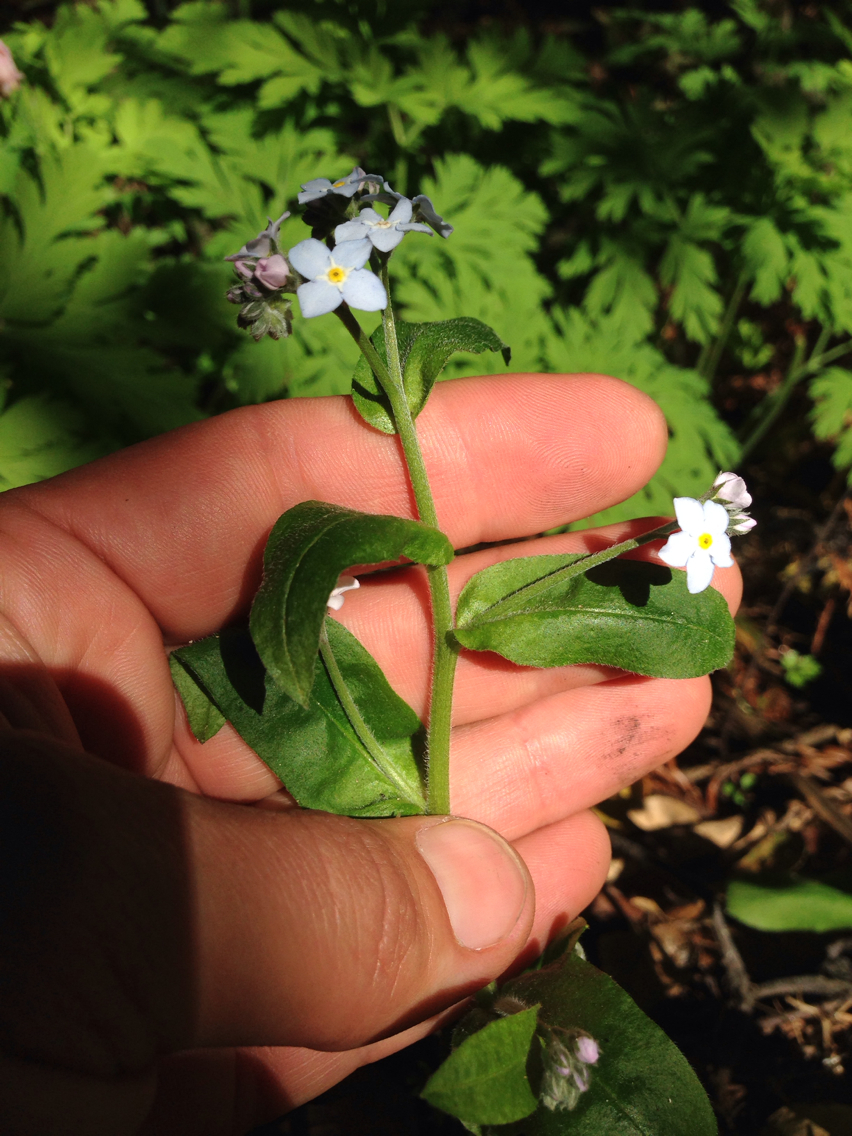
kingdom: Plantae
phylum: Tracheophyta
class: Magnoliopsida
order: Boraginales
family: Boraginaceae
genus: Myosotis
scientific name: Myosotis latifolia
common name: Broadleaf forget-me-not
